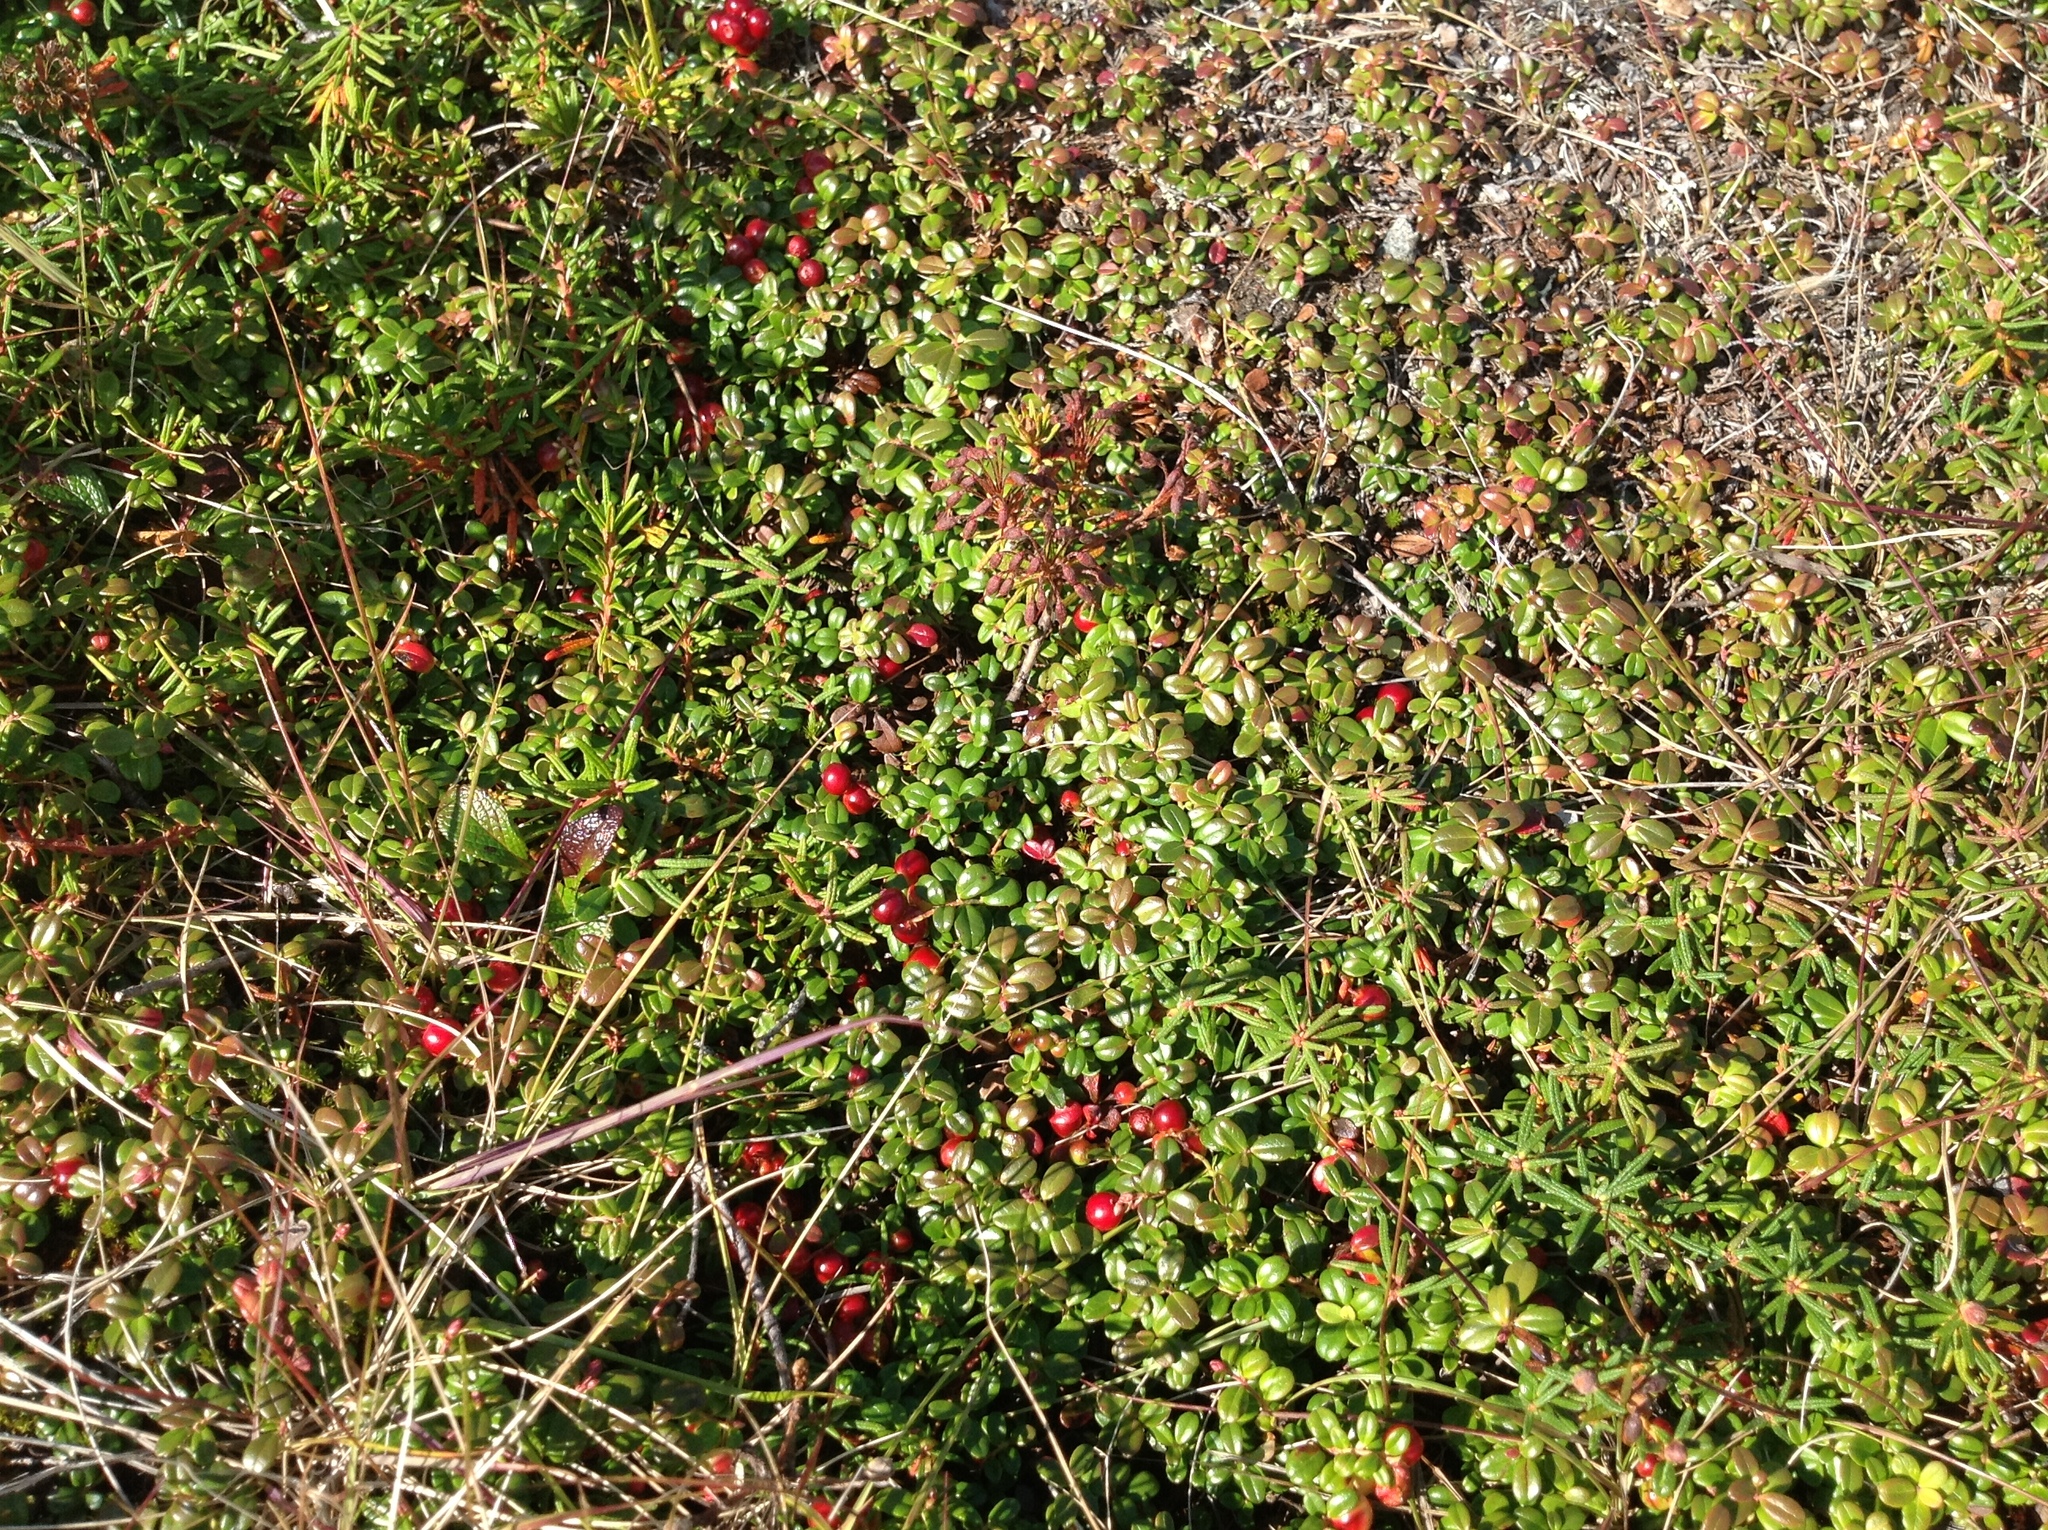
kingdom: Plantae
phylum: Tracheophyta
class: Magnoliopsida
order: Ericales
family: Ericaceae
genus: Vaccinium
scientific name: Vaccinium vitis-idaea
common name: Cowberry
